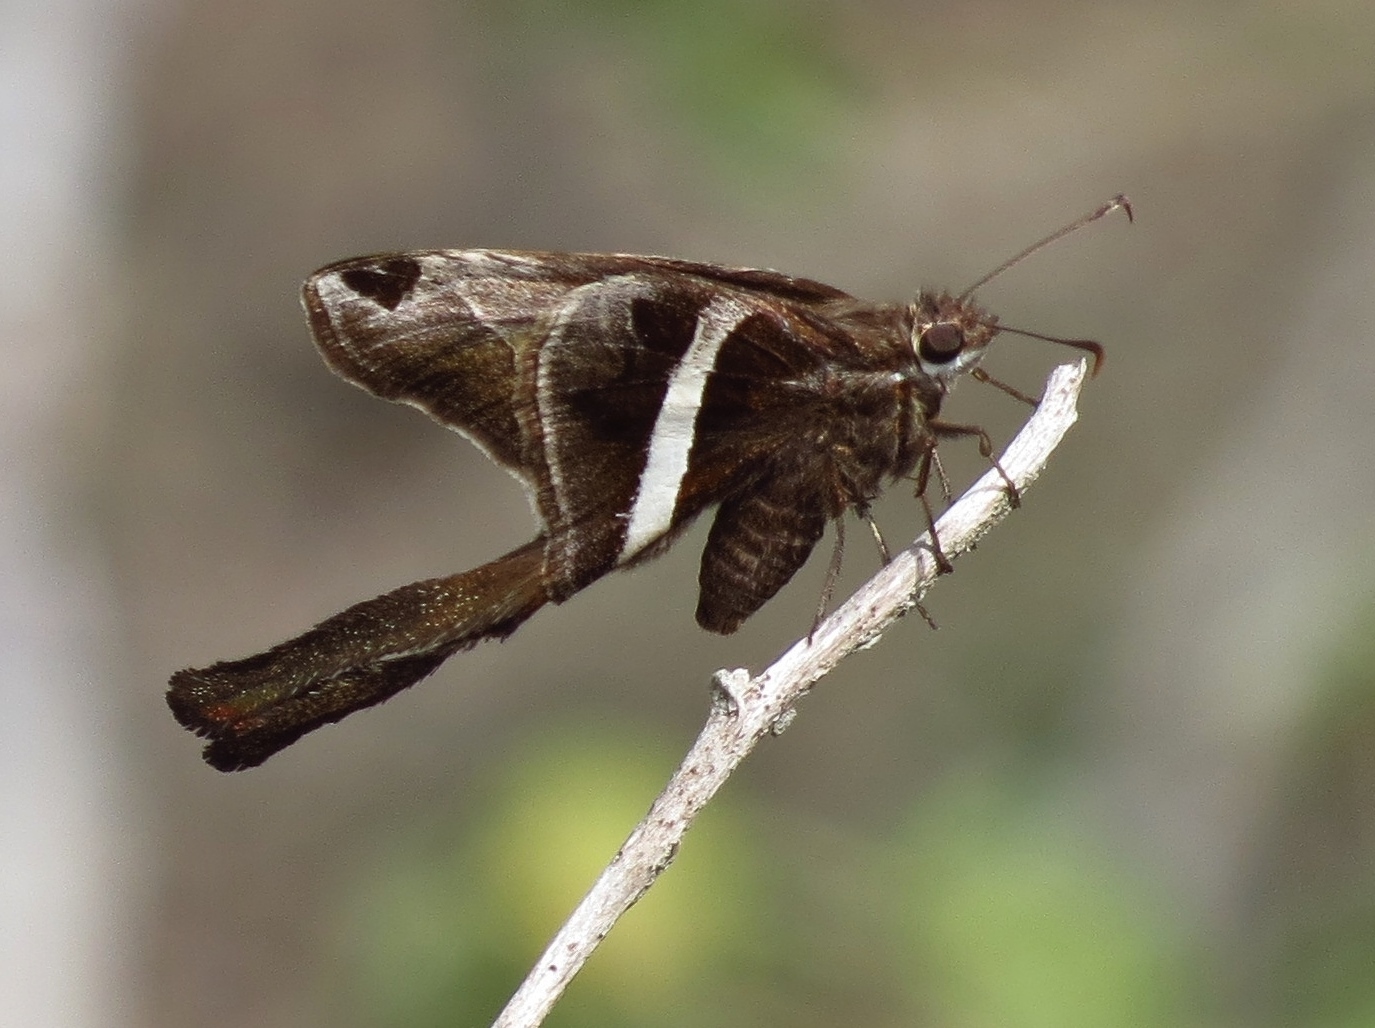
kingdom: Animalia
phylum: Arthropoda
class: Insecta
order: Lepidoptera
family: Hesperiidae
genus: Chioides
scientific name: Chioides catillus
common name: Silverbanded skipper
